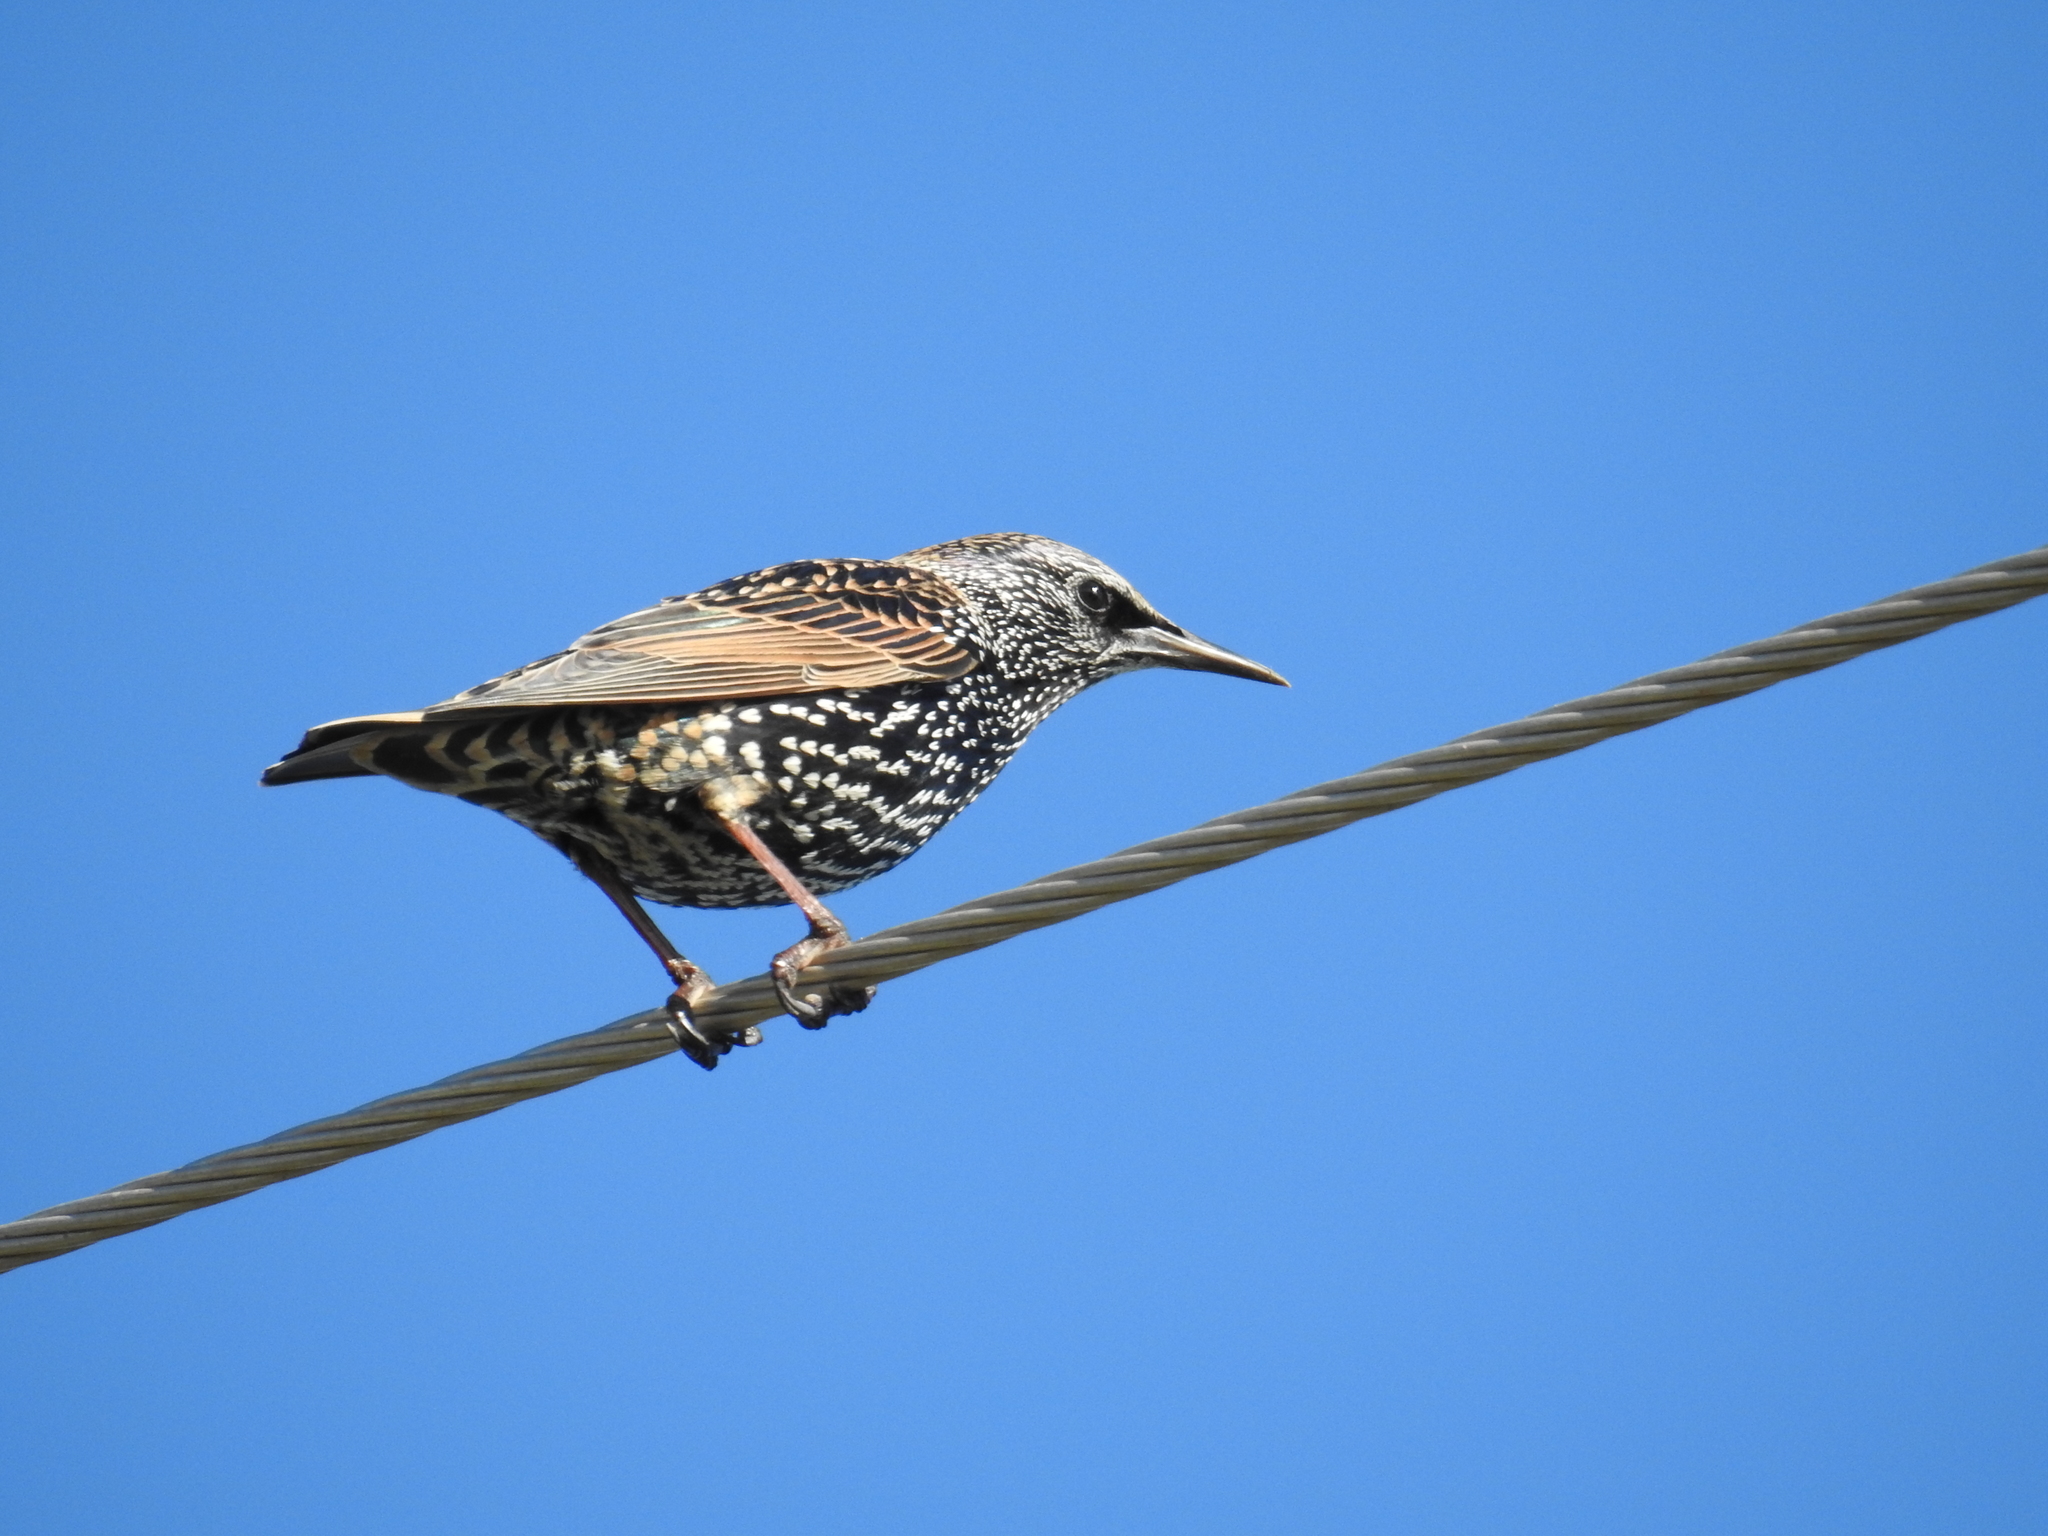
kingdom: Animalia
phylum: Chordata
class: Aves
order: Passeriformes
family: Sturnidae
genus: Sturnus
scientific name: Sturnus vulgaris
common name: Common starling
